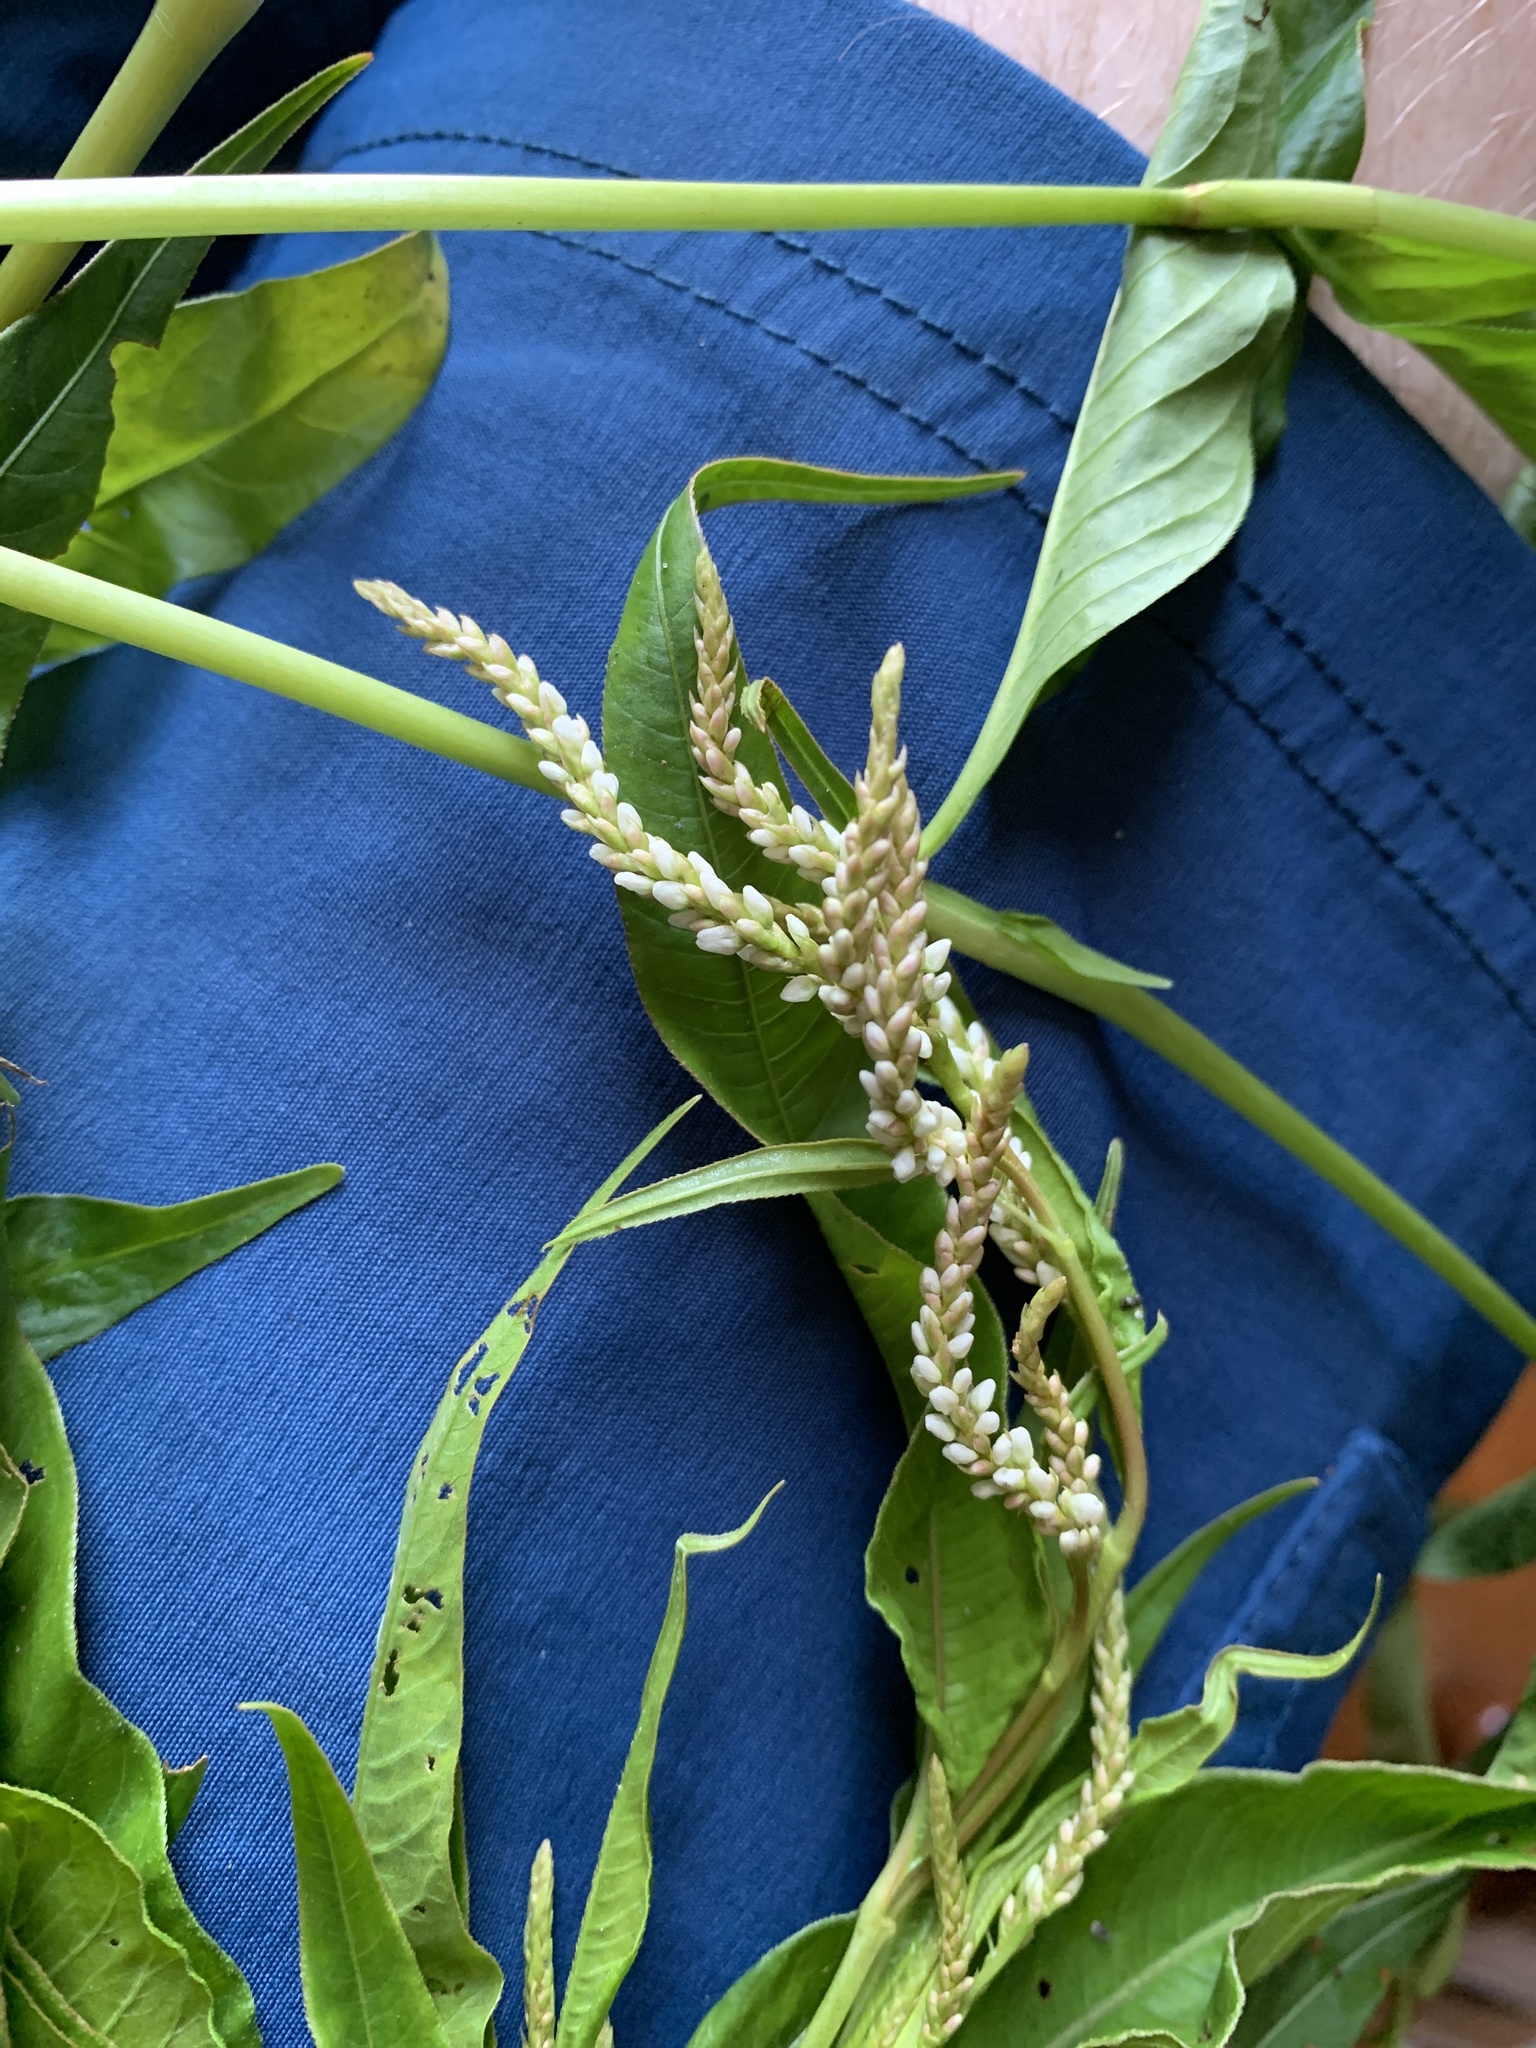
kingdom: Plantae
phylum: Tracheophyta
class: Magnoliopsida
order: Caryophyllales
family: Polygonaceae
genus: Persicaria
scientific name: Persicaria hydropiperoides
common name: Swamp smartweed
